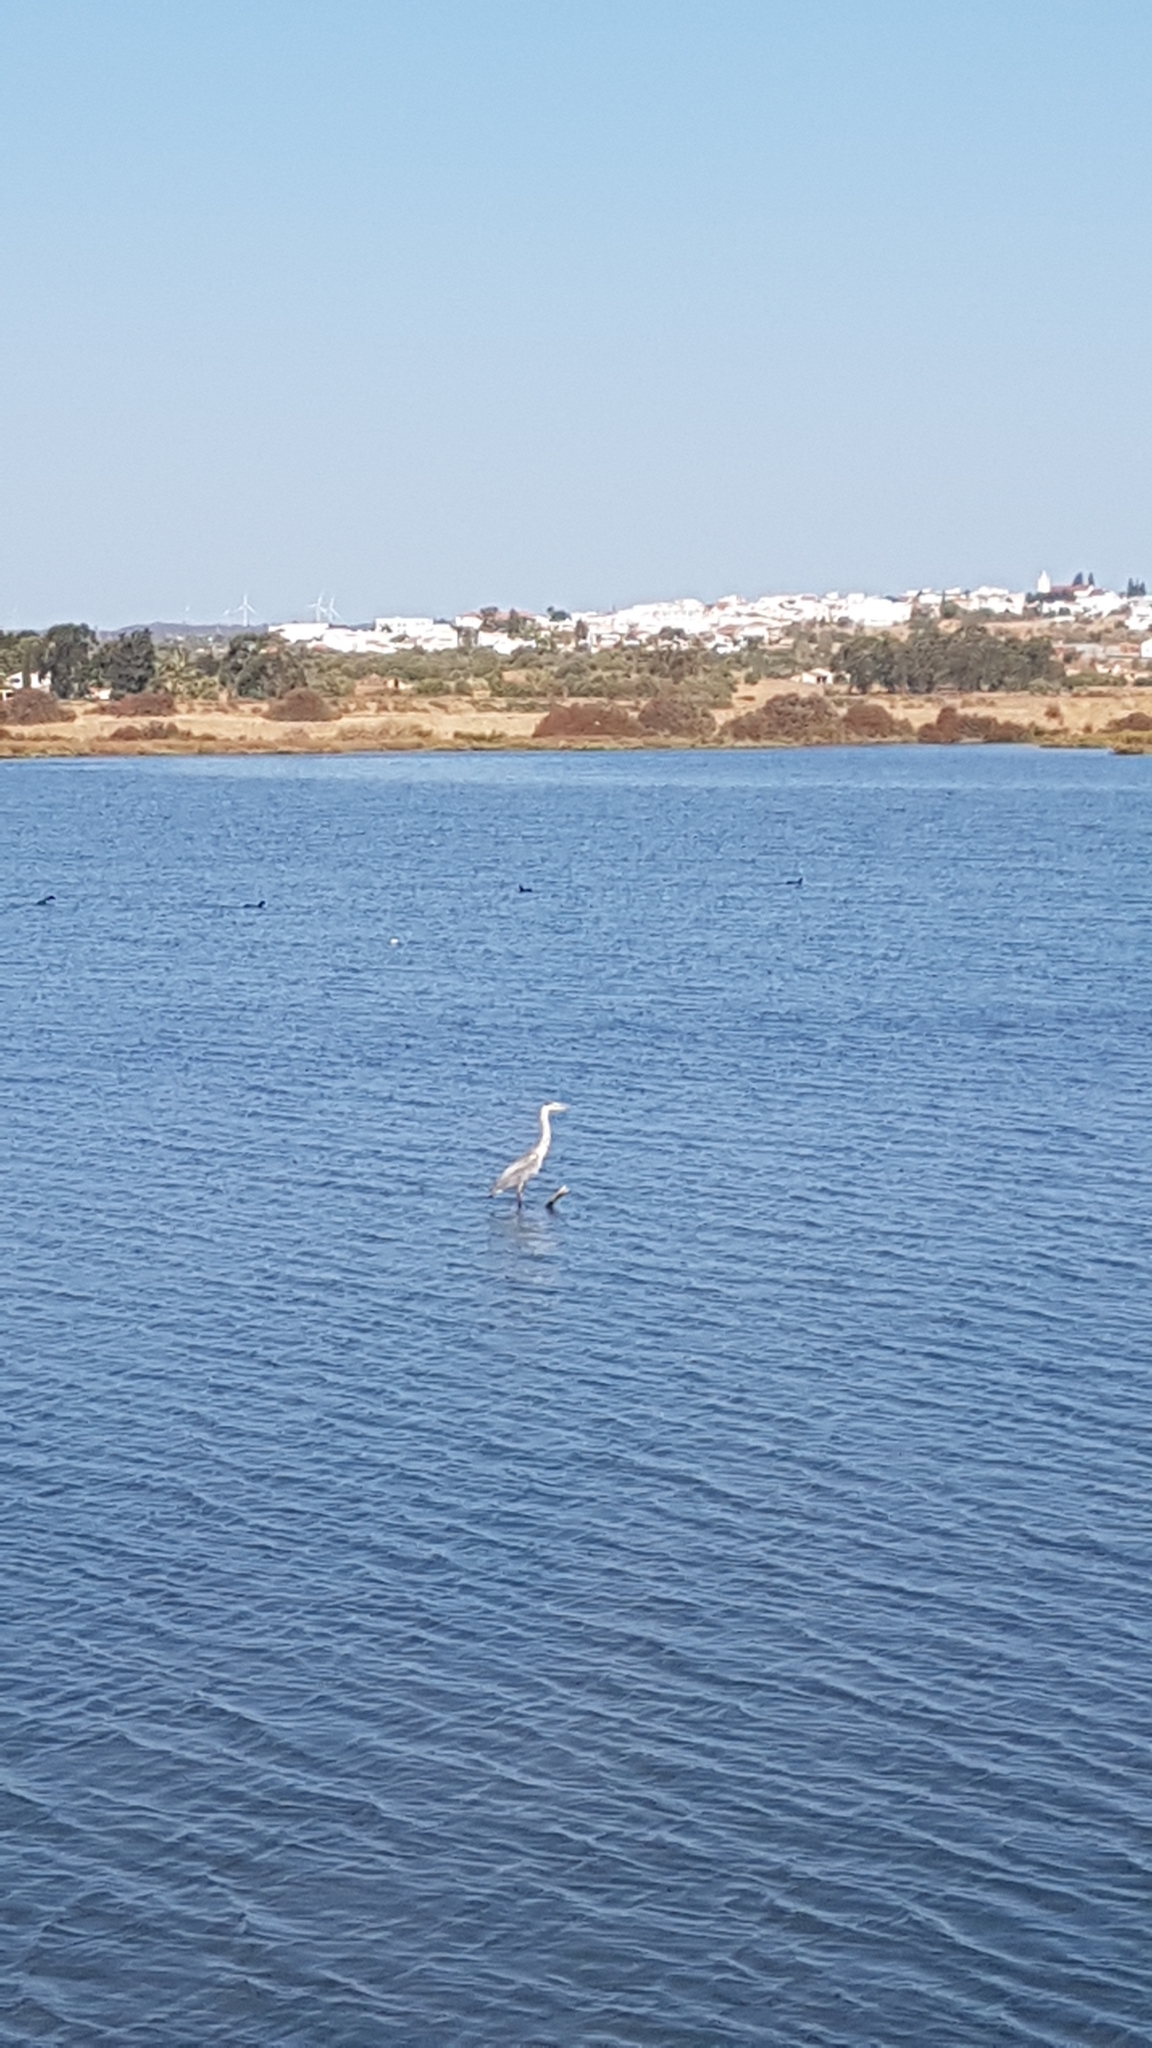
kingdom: Animalia
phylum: Chordata
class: Aves
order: Pelecaniformes
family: Ardeidae
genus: Ardea
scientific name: Ardea cinerea
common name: Grey heron
